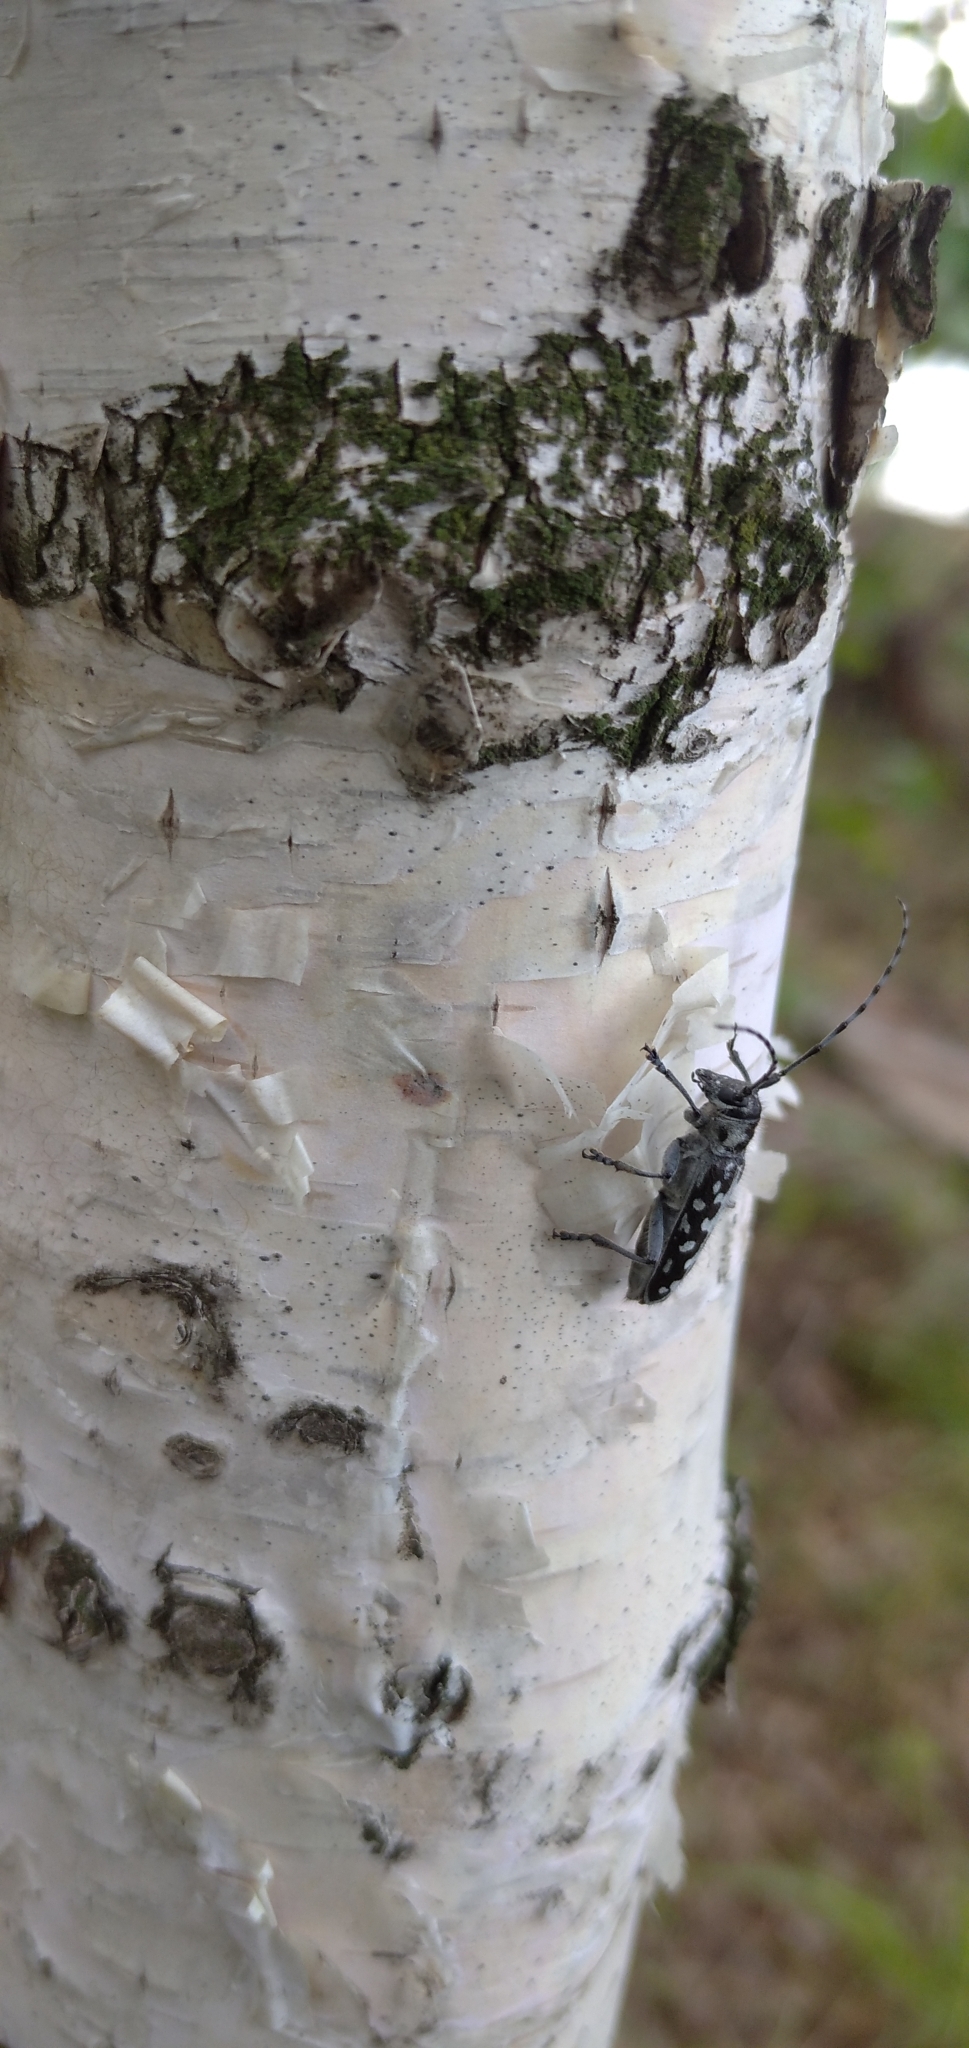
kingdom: Animalia
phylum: Arthropoda
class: Insecta
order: Coleoptera
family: Cerambycidae
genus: Saperda
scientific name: Saperda scalaris
